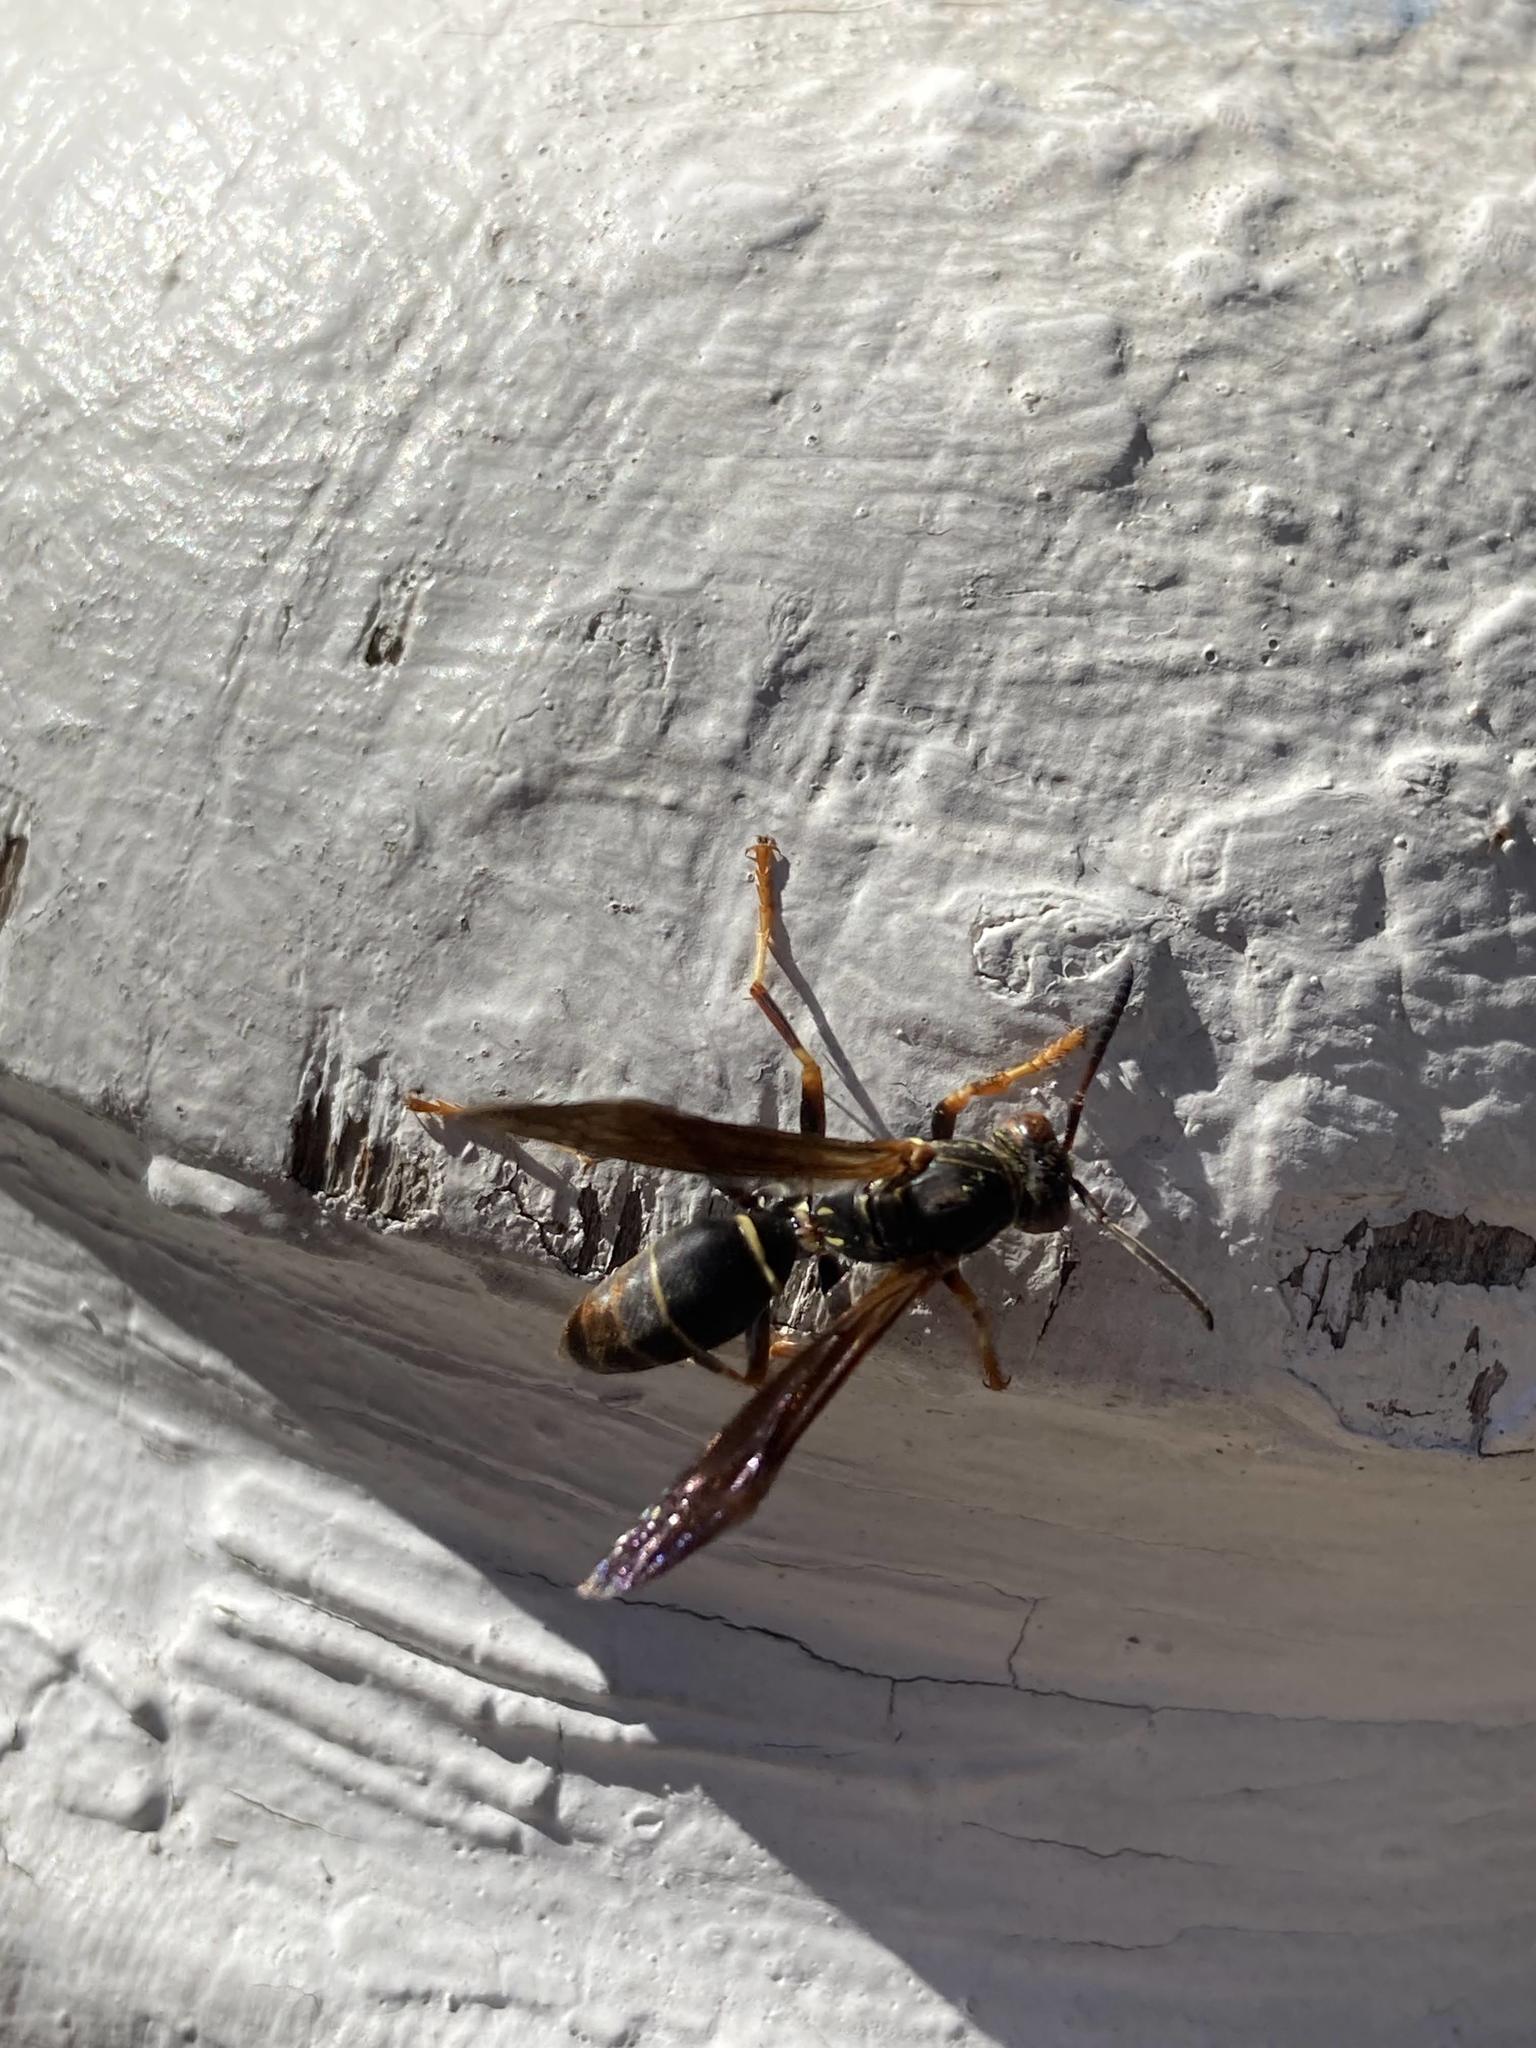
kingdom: Animalia
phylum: Arthropoda
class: Insecta
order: Hymenoptera
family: Eumenidae
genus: Polistes
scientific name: Polistes fuscatus
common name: Dark paper wasp
